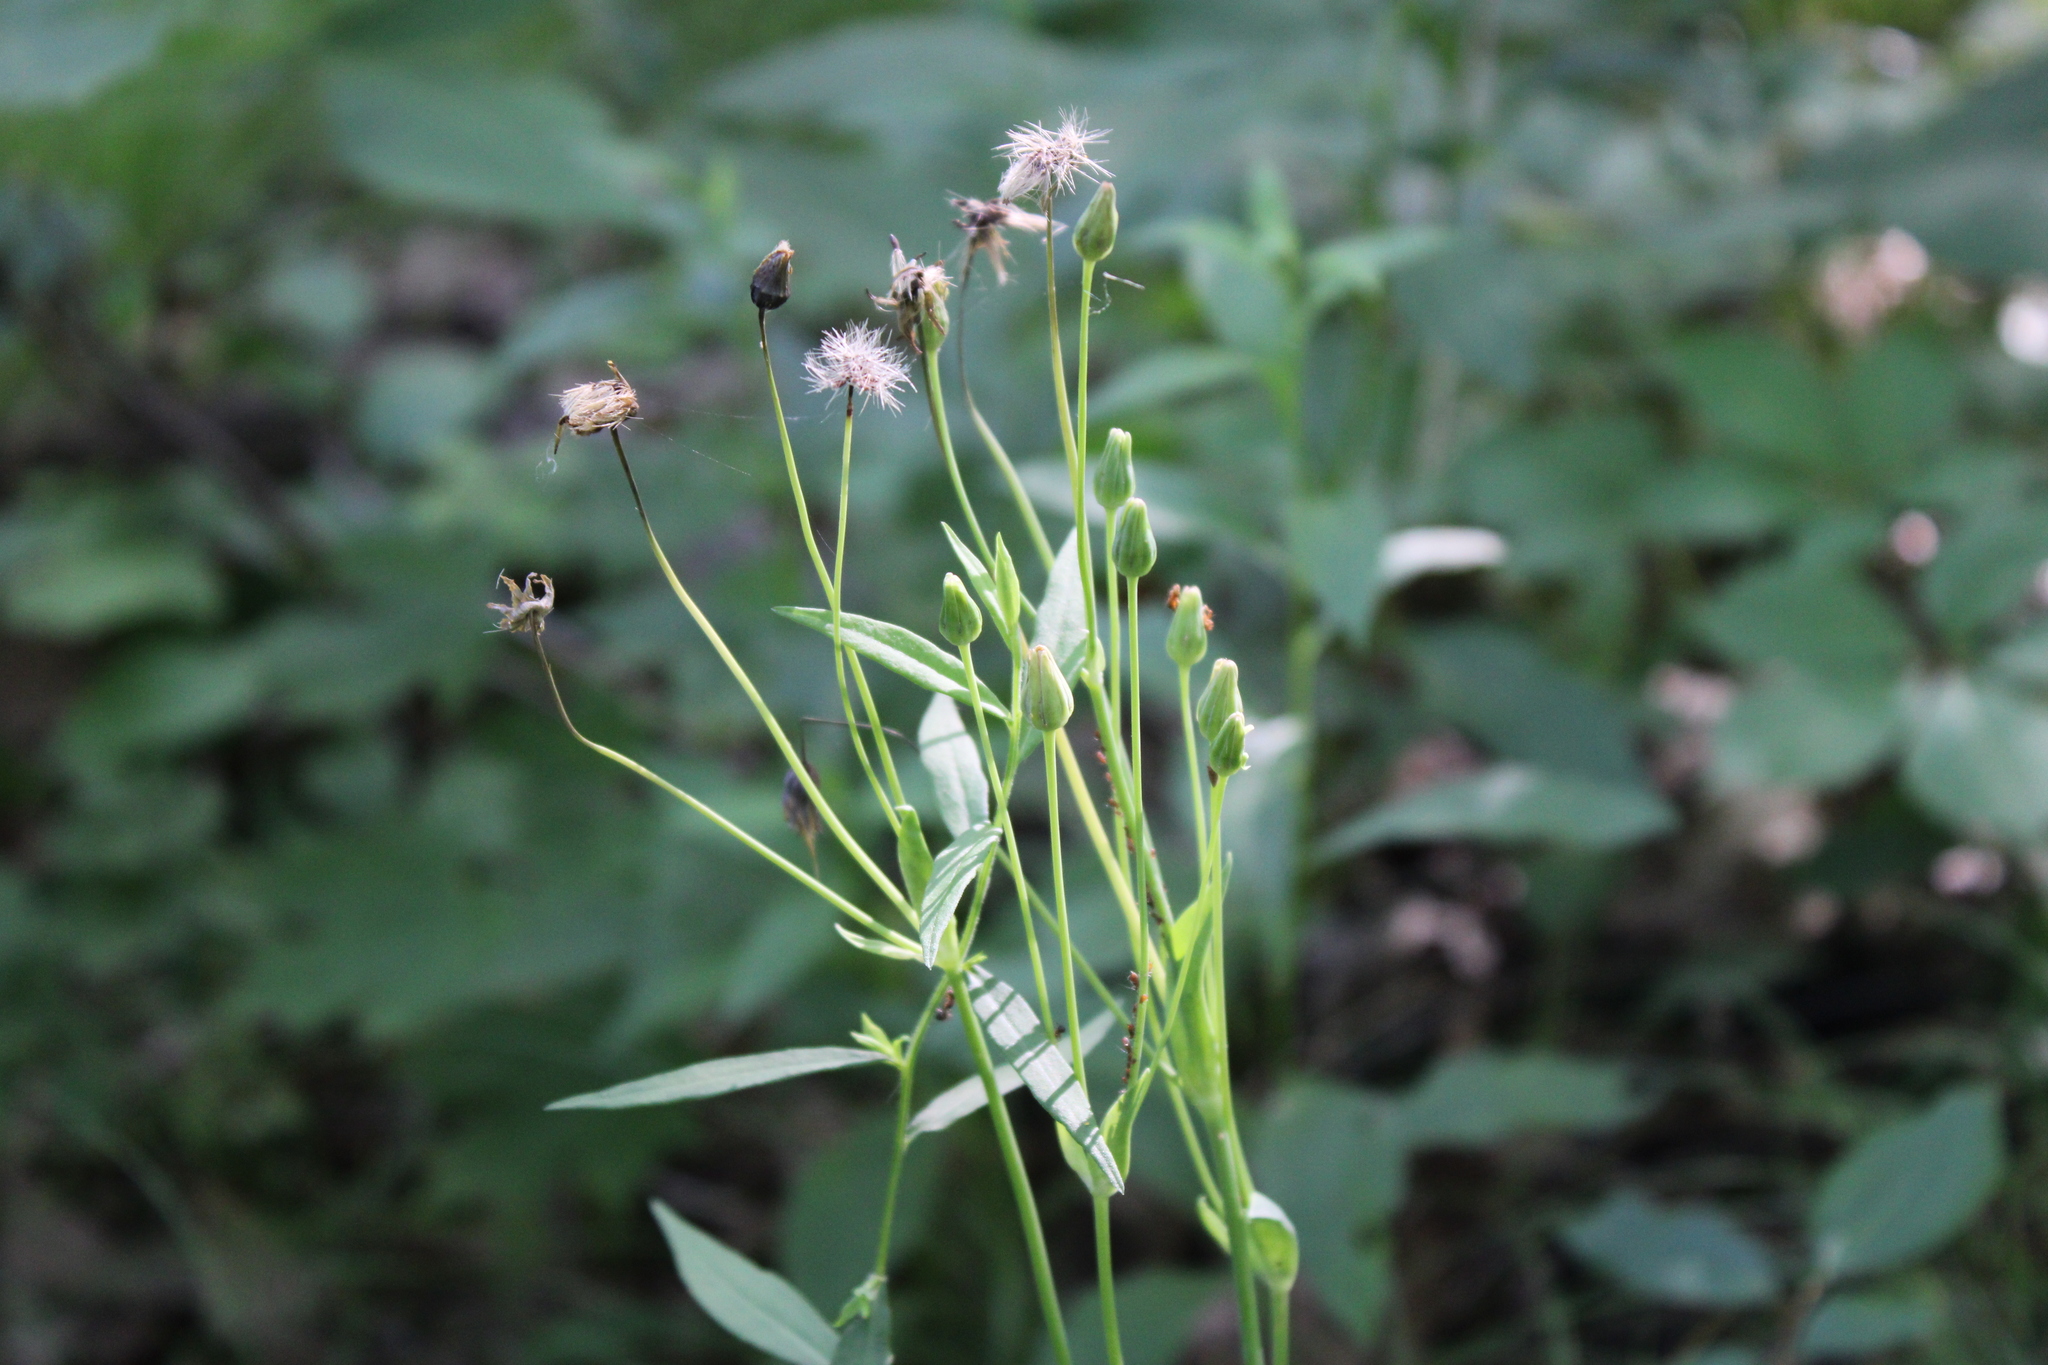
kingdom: Plantae
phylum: Tracheophyta
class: Magnoliopsida
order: Asterales
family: Asteraceae
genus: Krigia
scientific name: Krigia biflora
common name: Orange dwarf-dandelion
